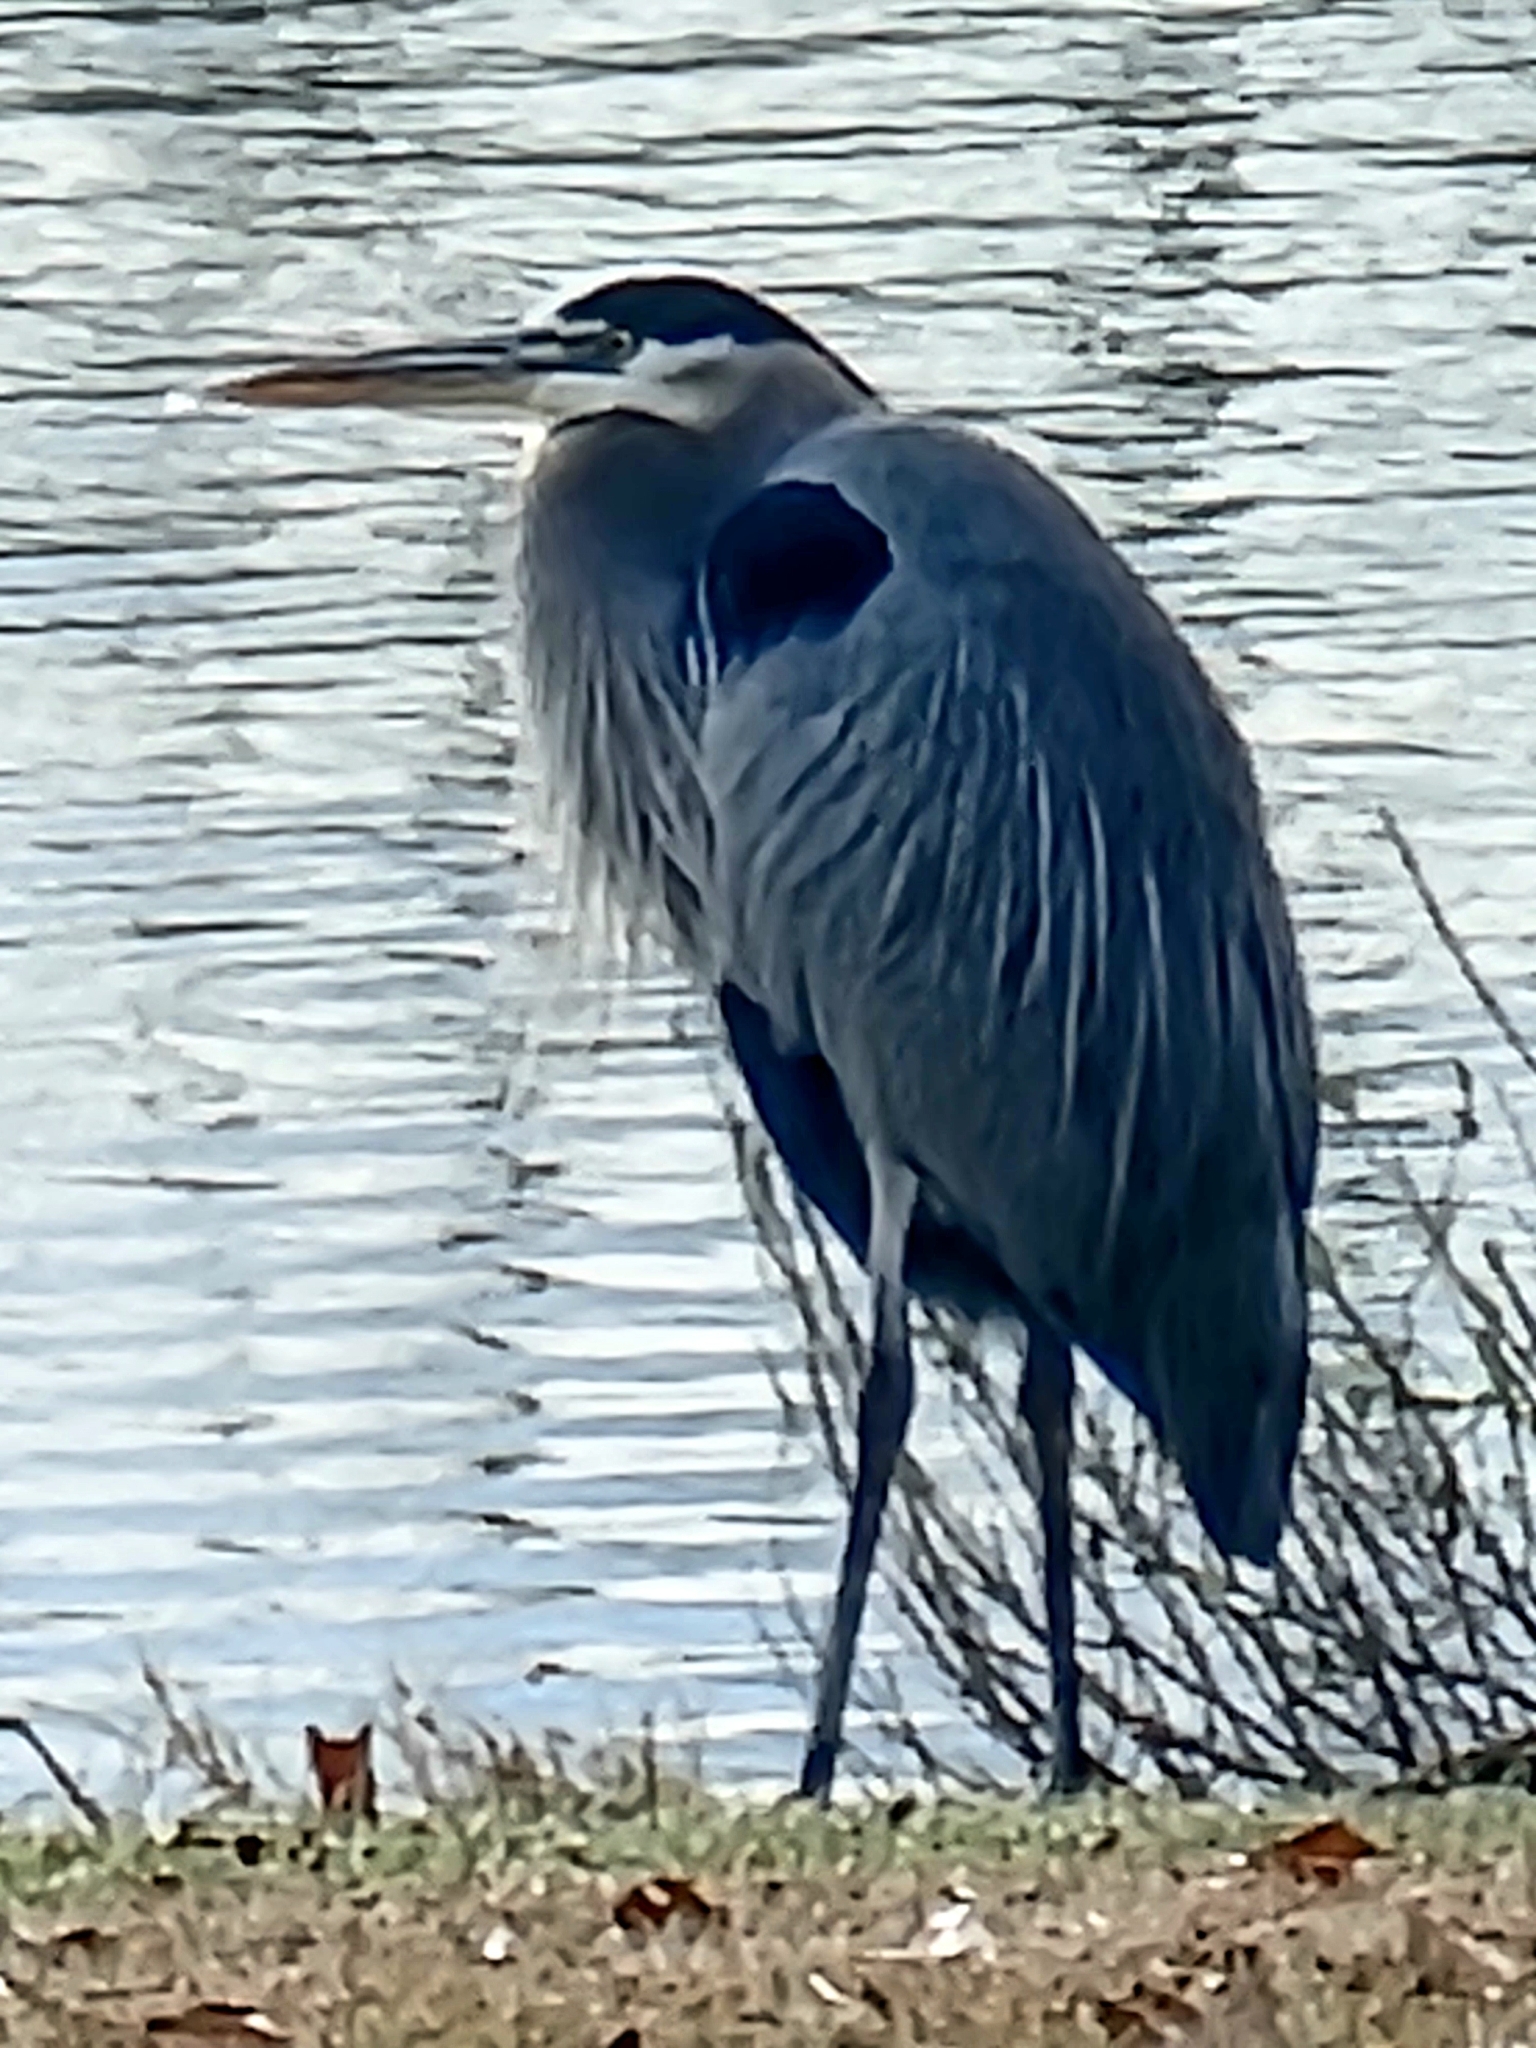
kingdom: Animalia
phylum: Chordata
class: Aves
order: Pelecaniformes
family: Ardeidae
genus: Ardea
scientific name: Ardea herodias
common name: Great blue heron
